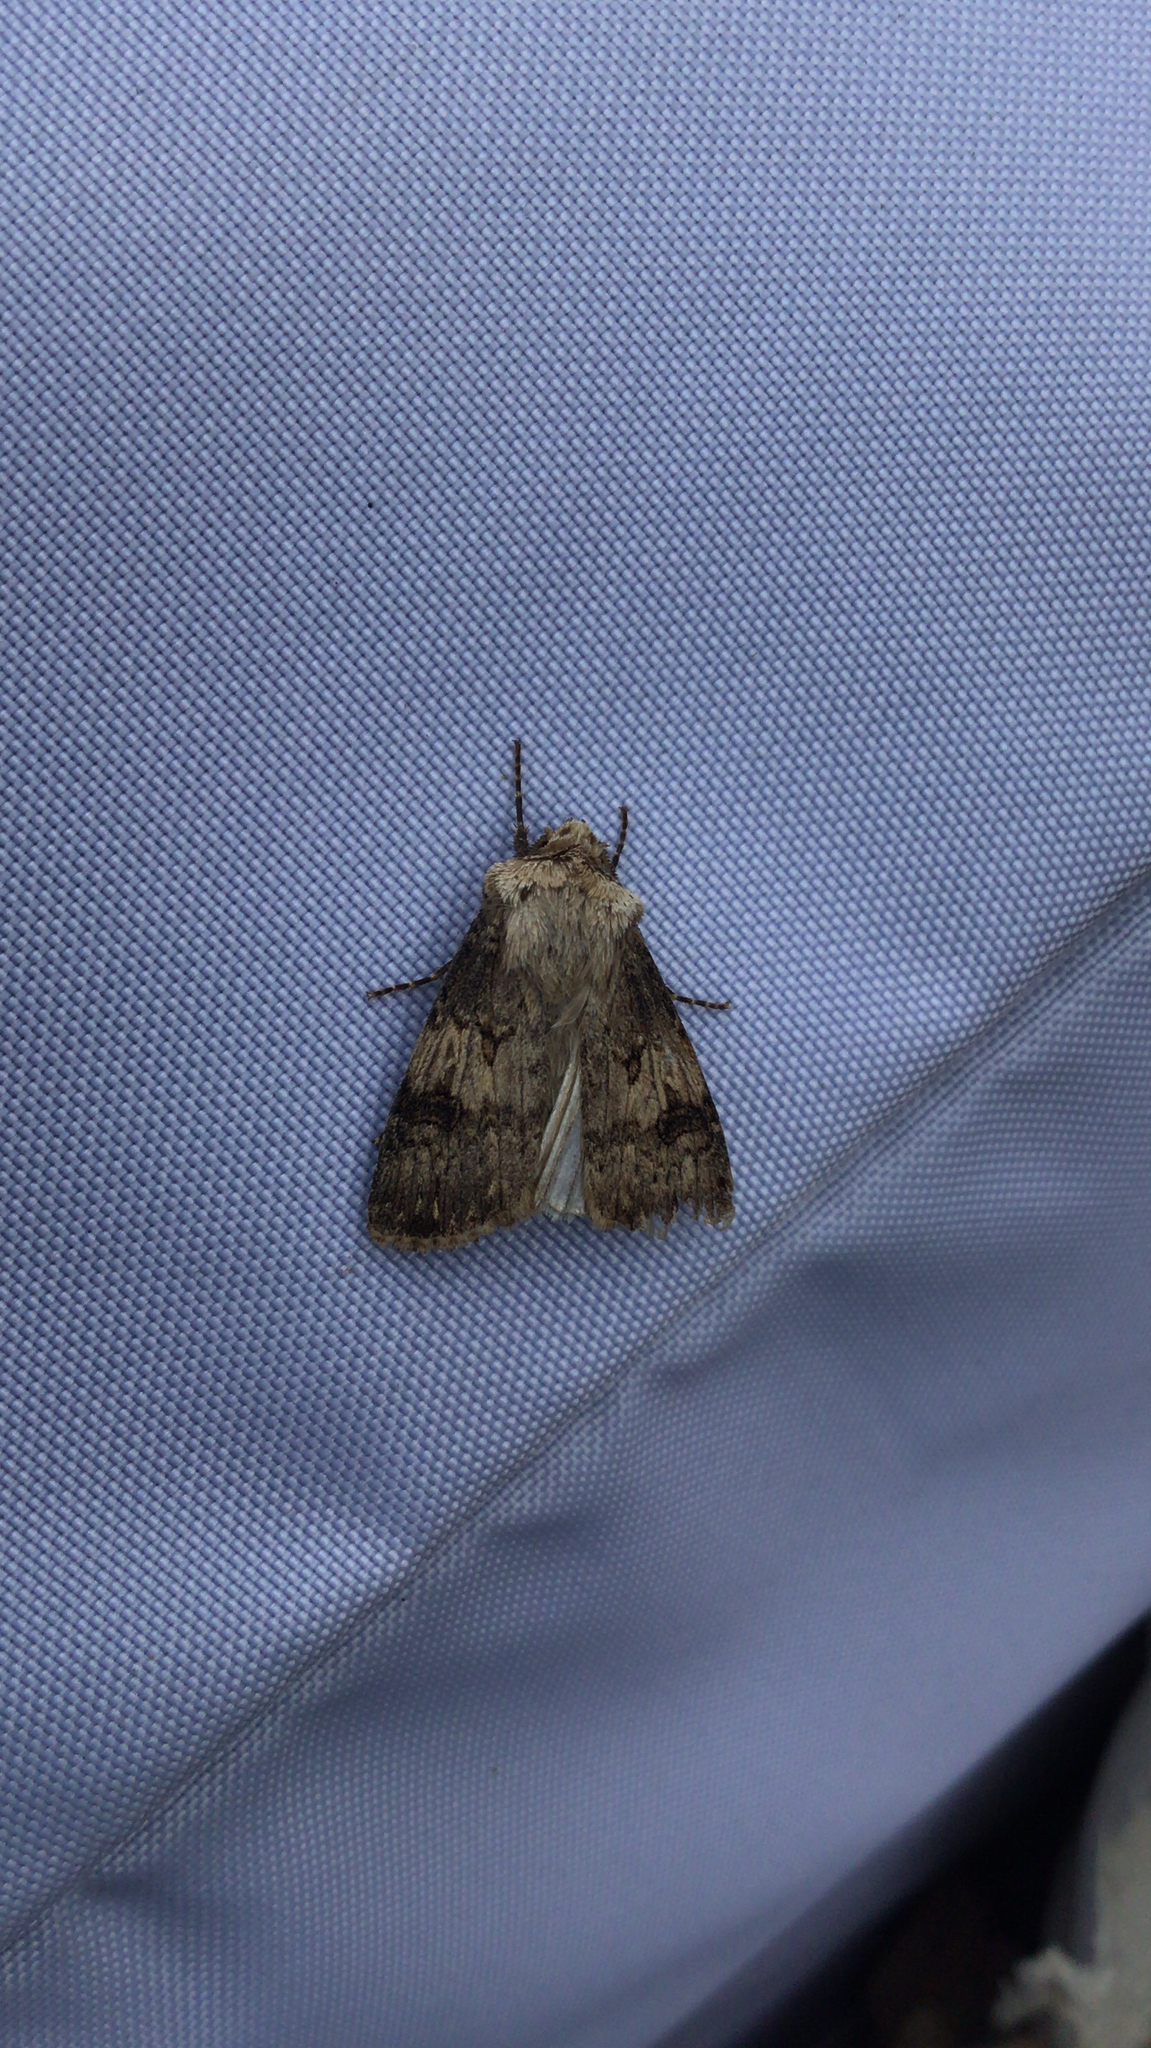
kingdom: Animalia
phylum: Arthropoda
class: Insecta
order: Lepidoptera
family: Noctuidae
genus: Agrotis
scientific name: Agrotis puta
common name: Shuttle-shaped dart
